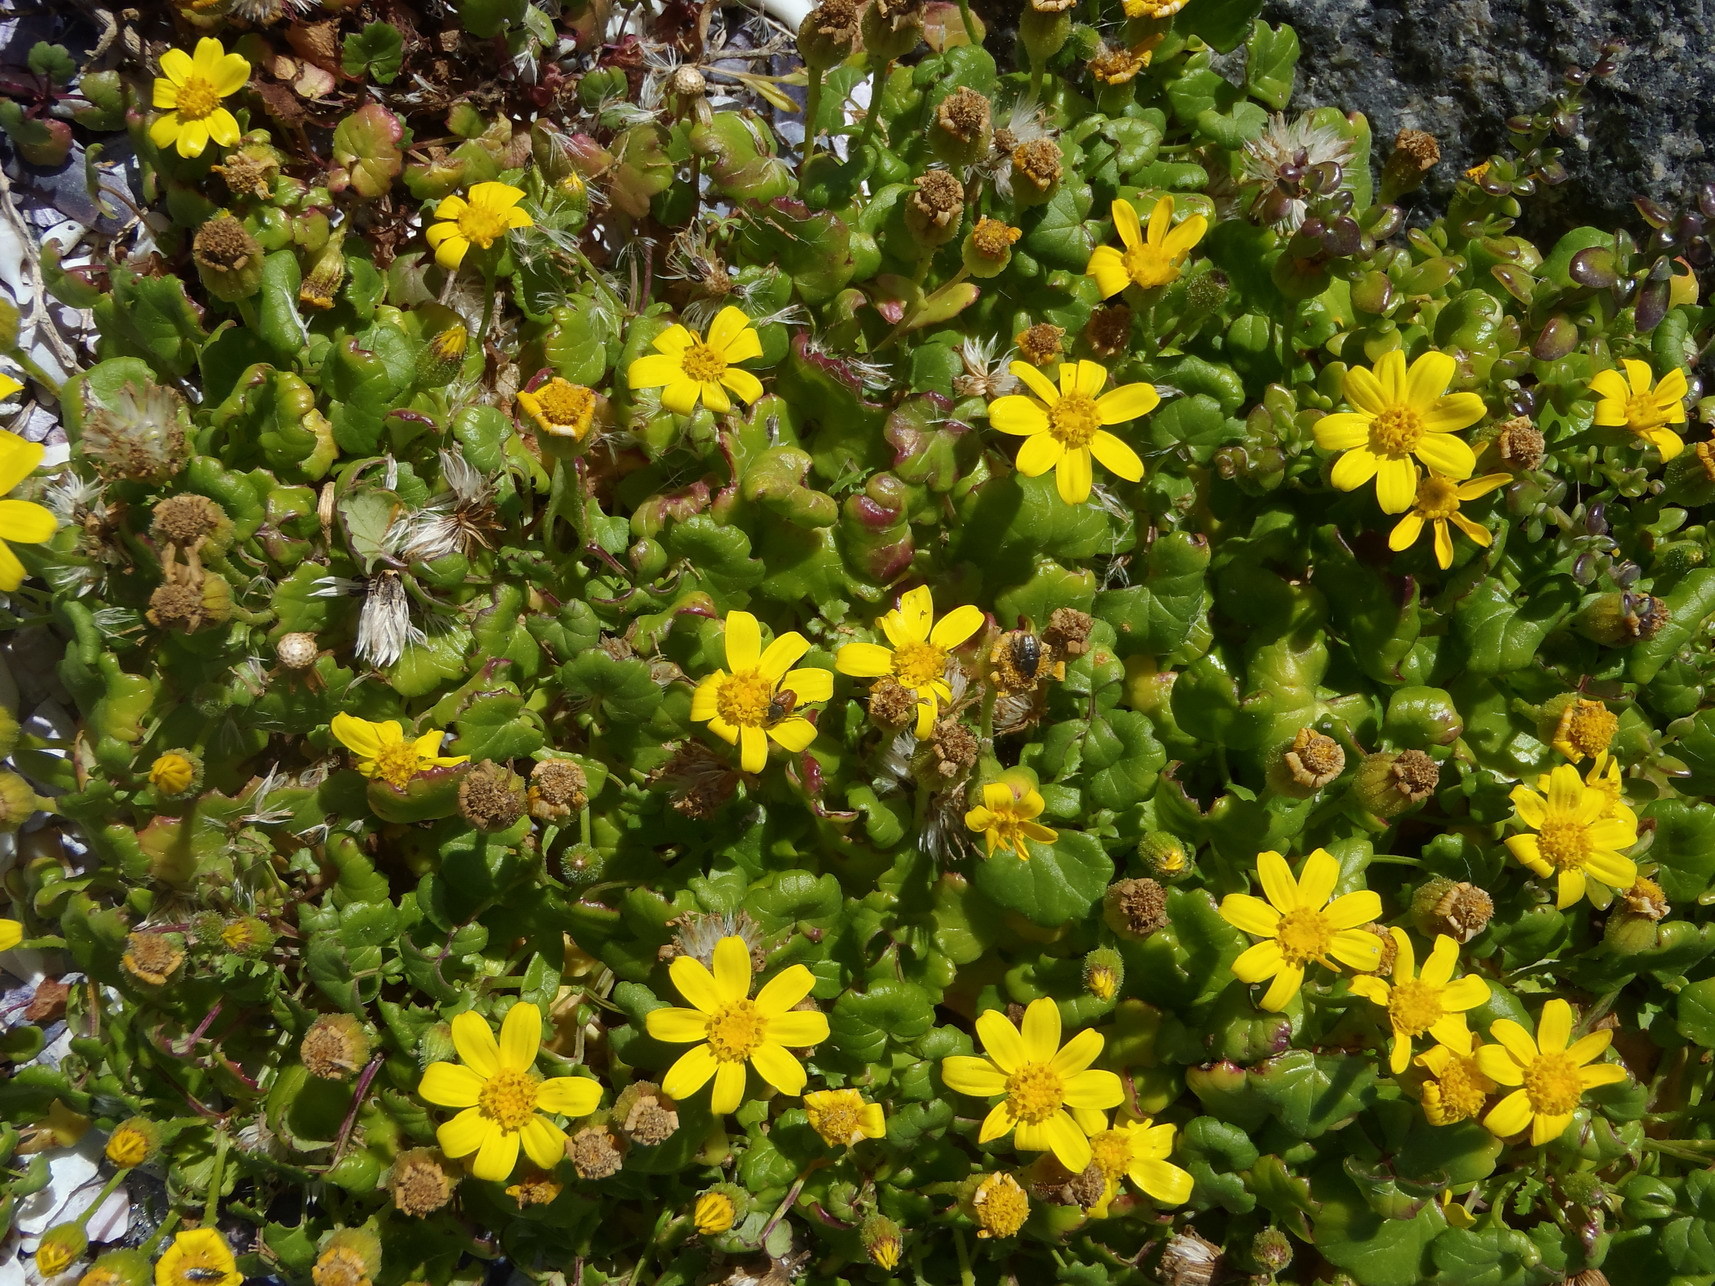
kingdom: Plantae
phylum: Tracheophyta
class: Magnoliopsida
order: Asterales
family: Asteraceae
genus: Senecio
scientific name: Senecio maritimus
